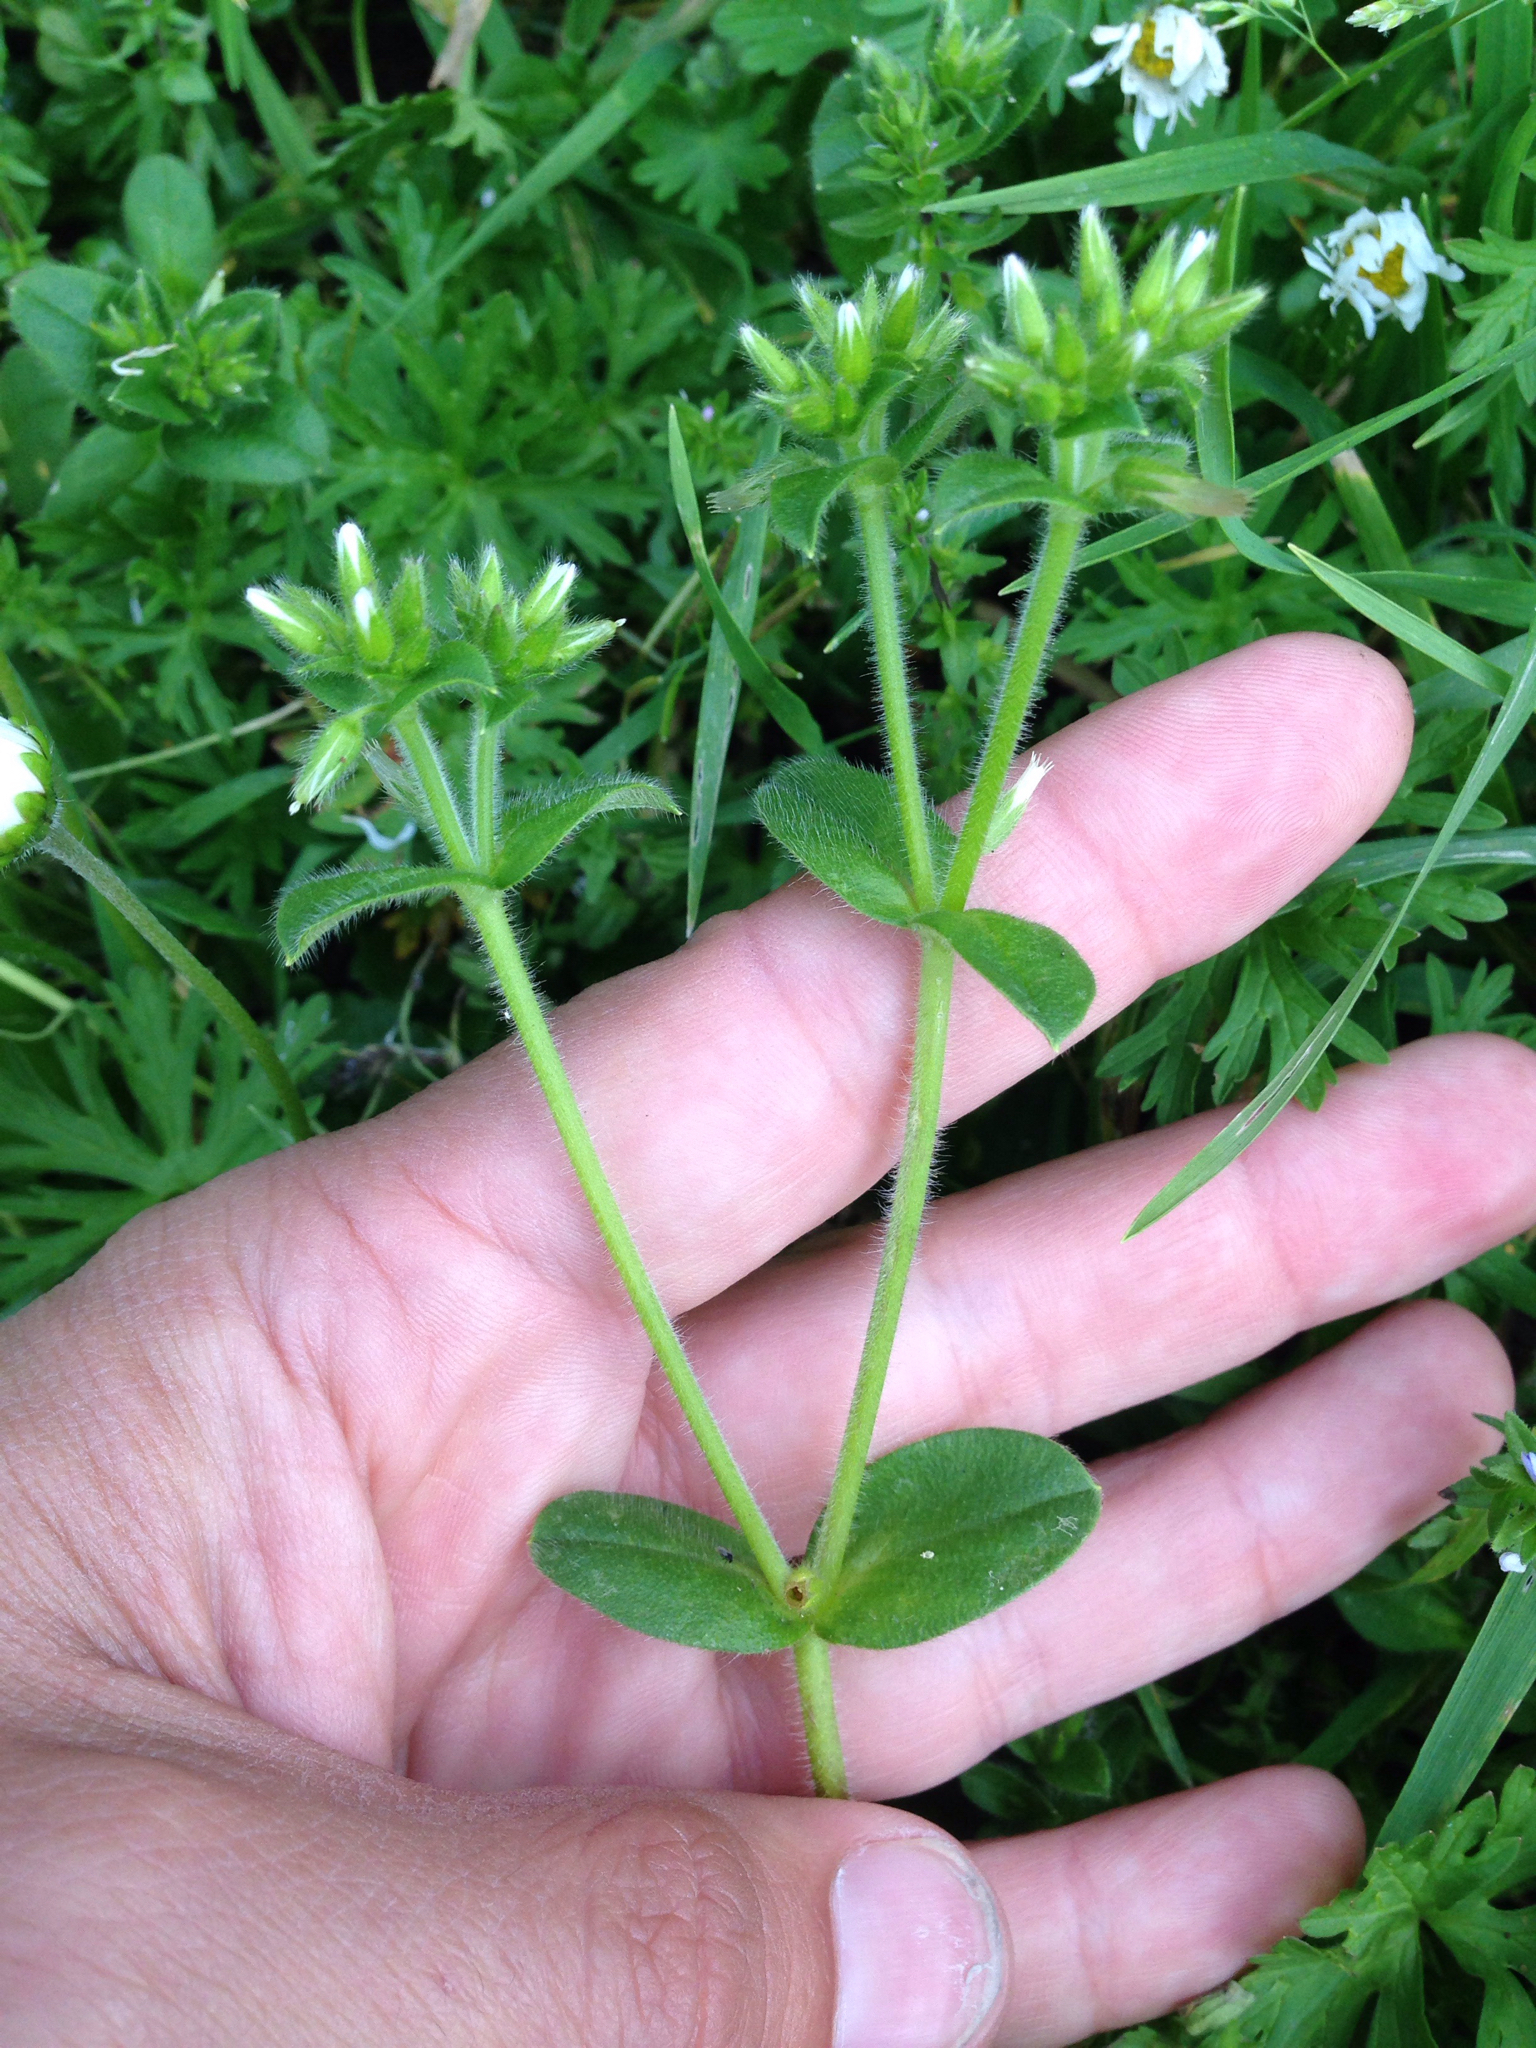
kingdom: Plantae
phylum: Tracheophyta
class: Magnoliopsida
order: Caryophyllales
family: Caryophyllaceae
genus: Cerastium
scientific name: Cerastium glomeratum
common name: Sticky chickweed
